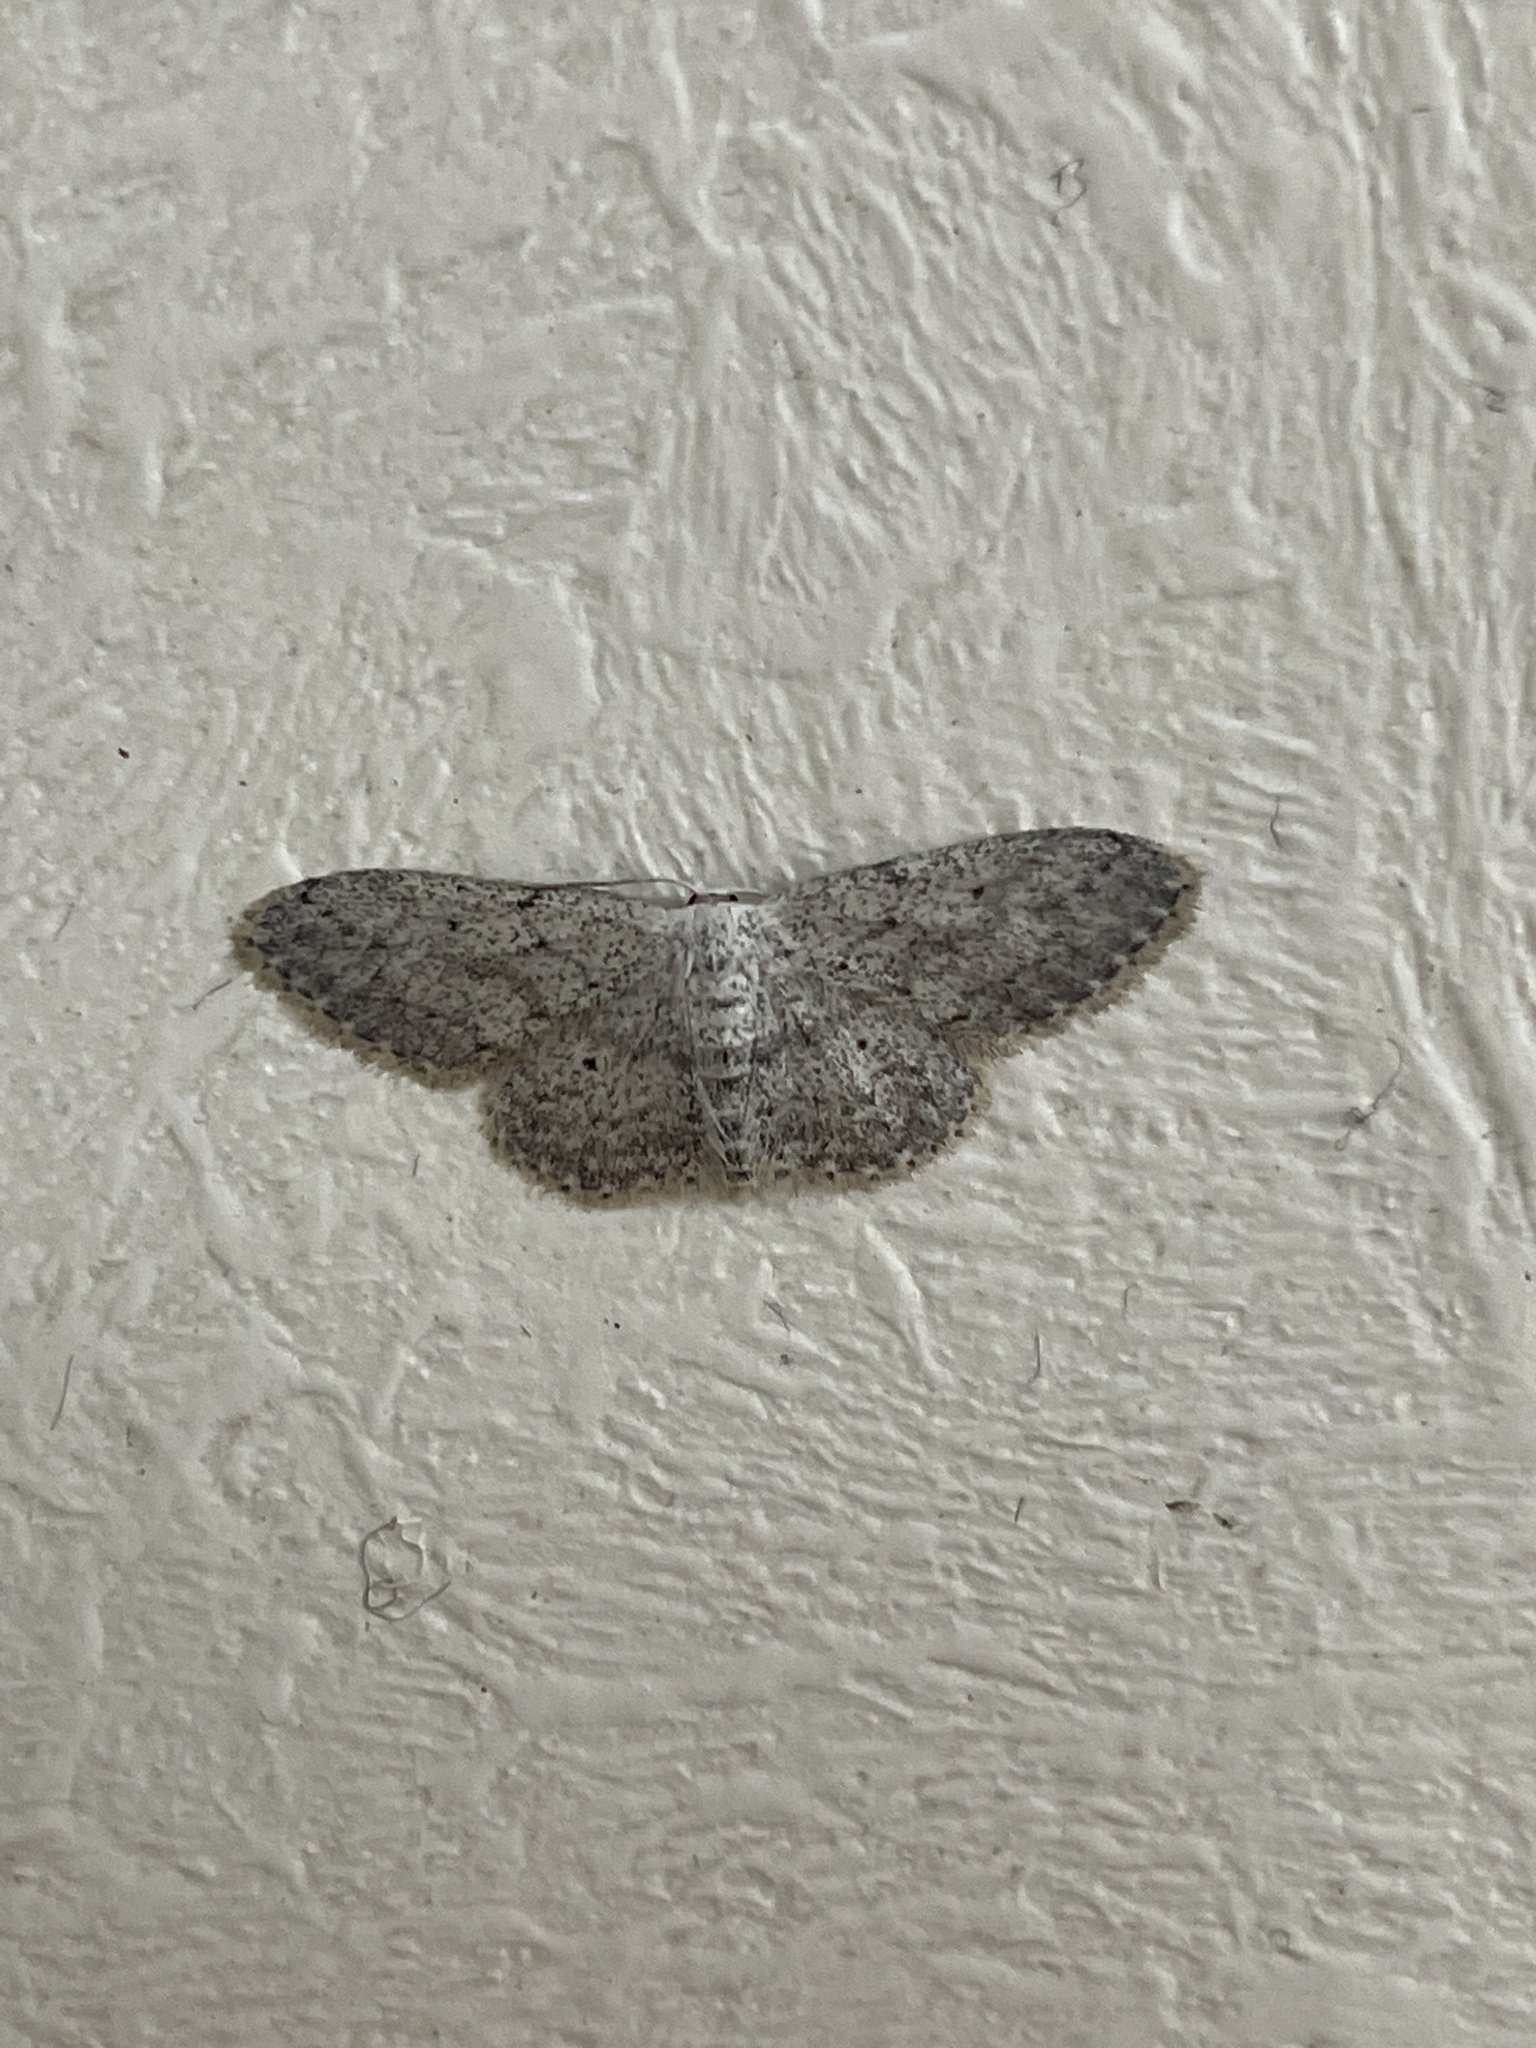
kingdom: Animalia
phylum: Arthropoda
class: Insecta
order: Lepidoptera
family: Geometridae
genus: Idaea
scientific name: Idaea seriata
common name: Small dusty wave
